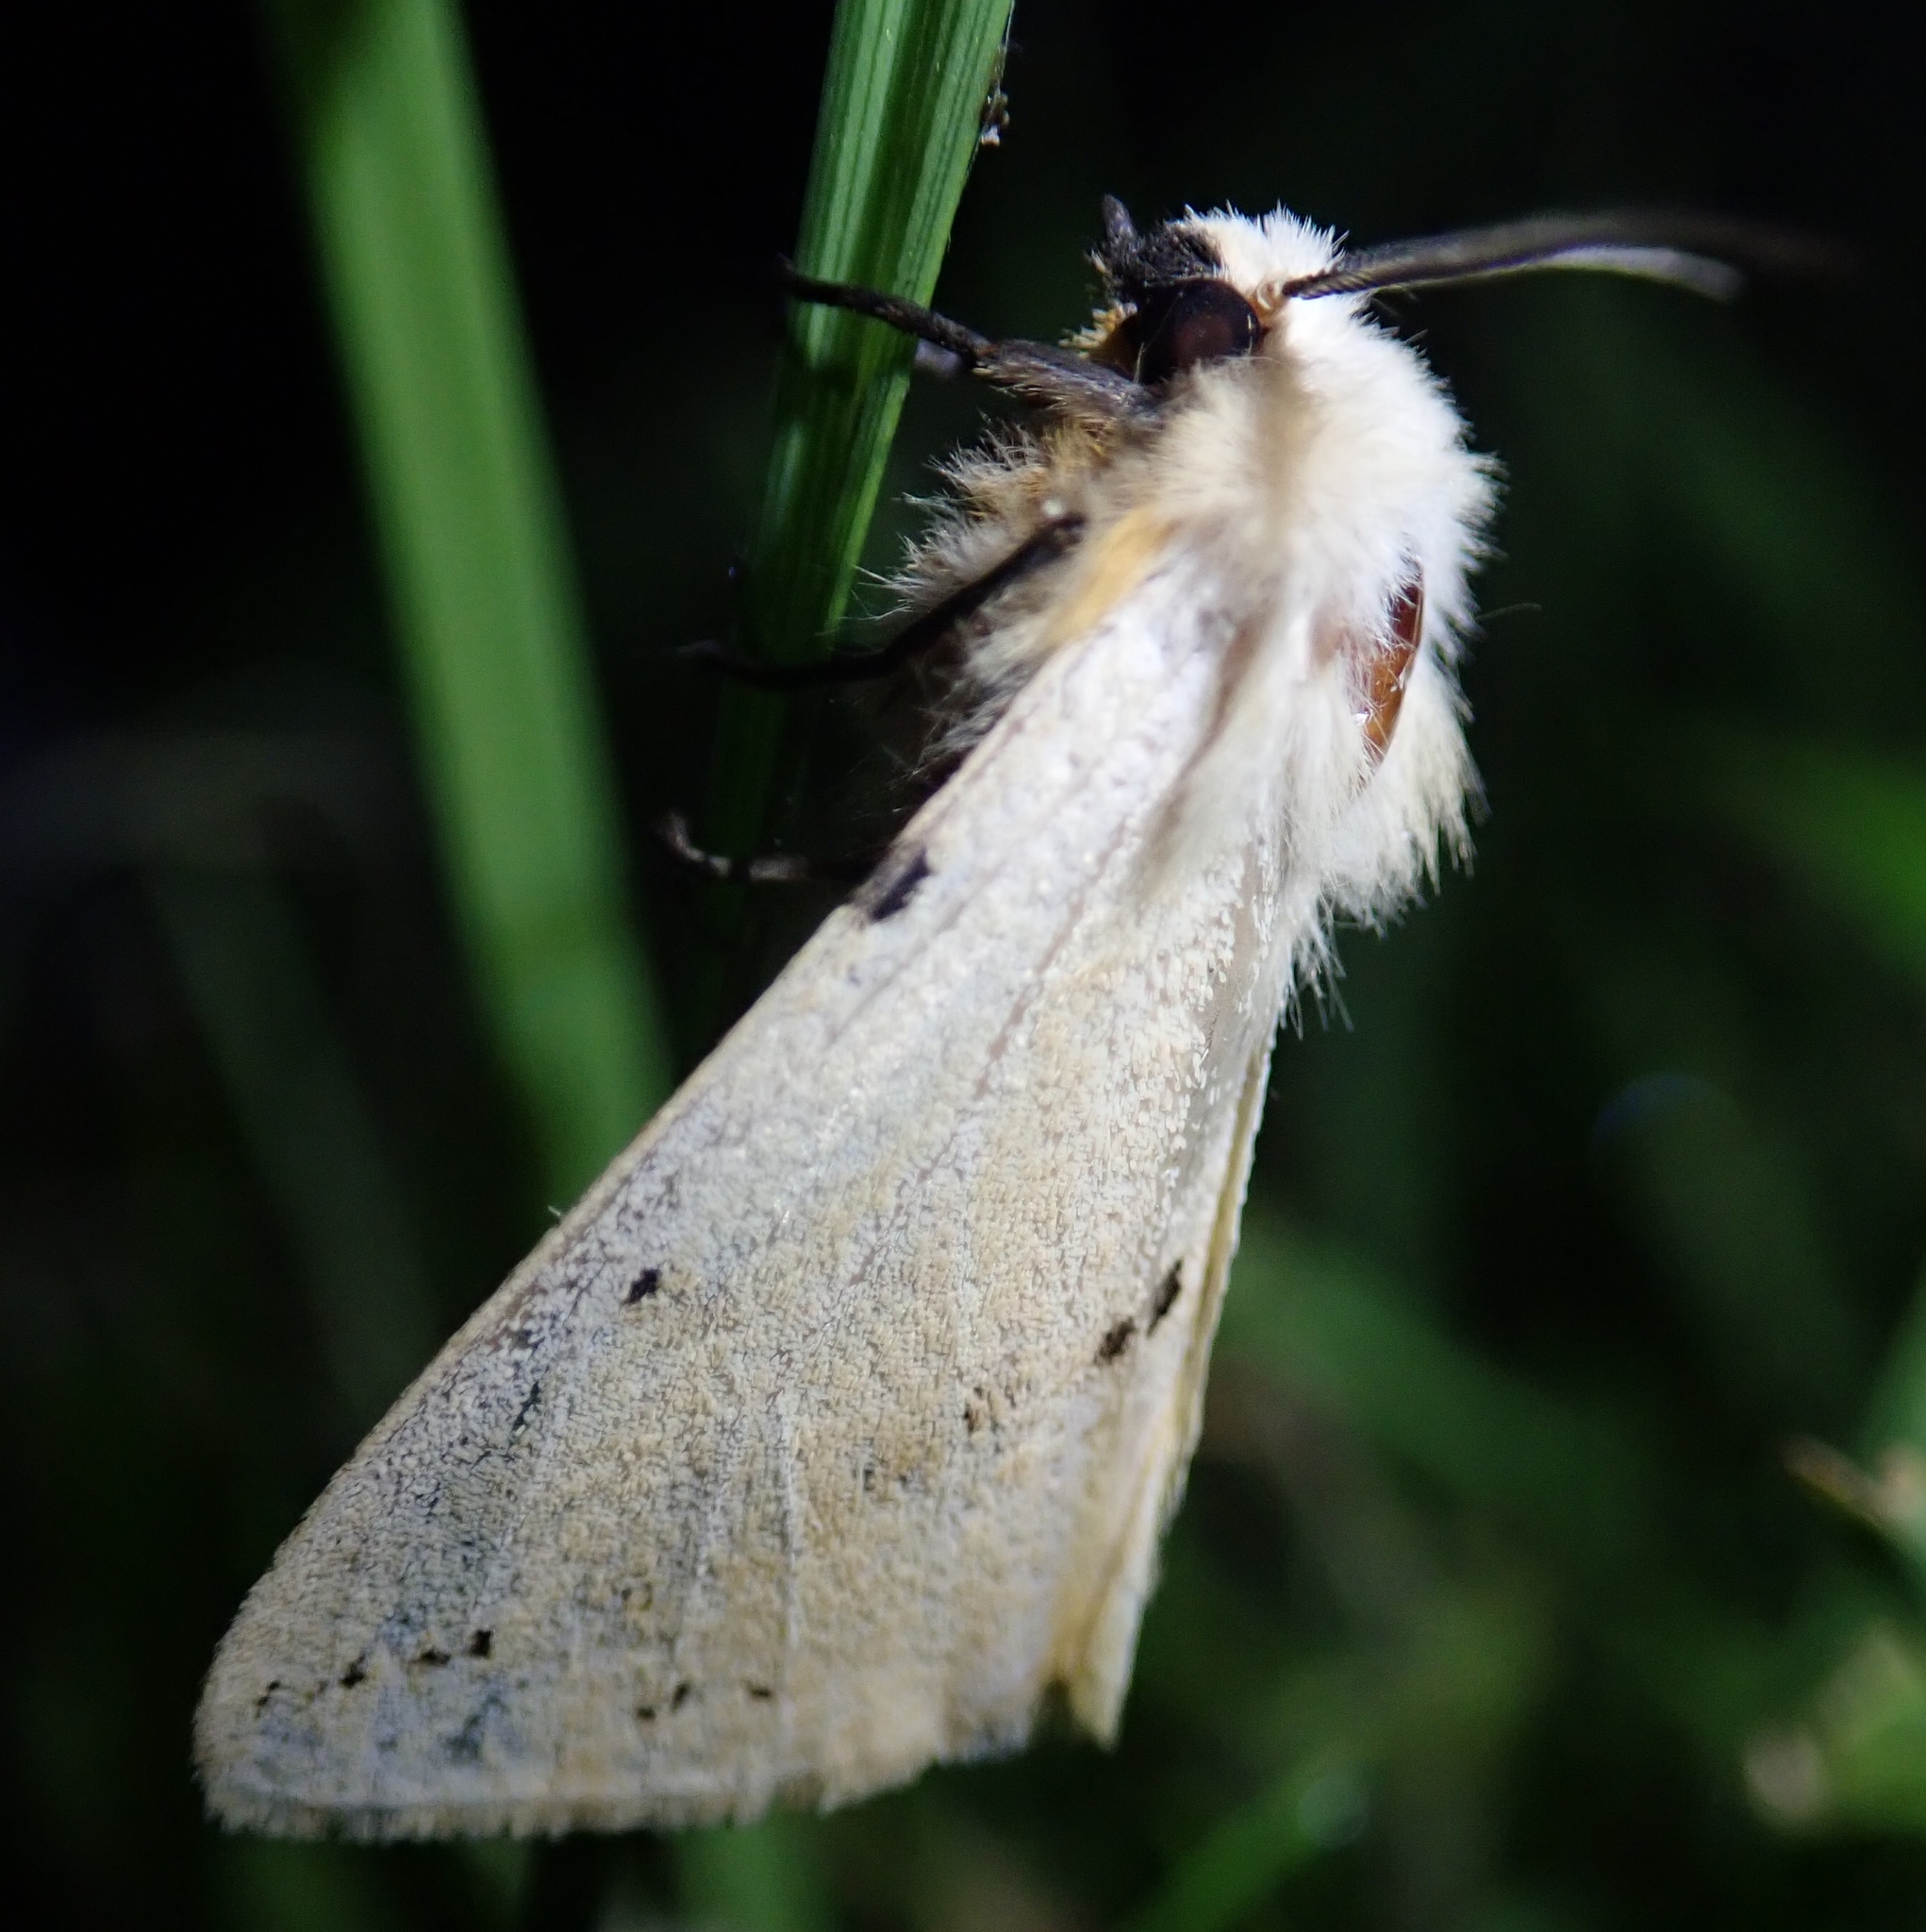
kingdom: Animalia
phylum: Arthropoda
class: Insecta
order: Lepidoptera
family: Erebidae
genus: Spilarctia
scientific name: Spilarctia lutea
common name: Buff ermine
